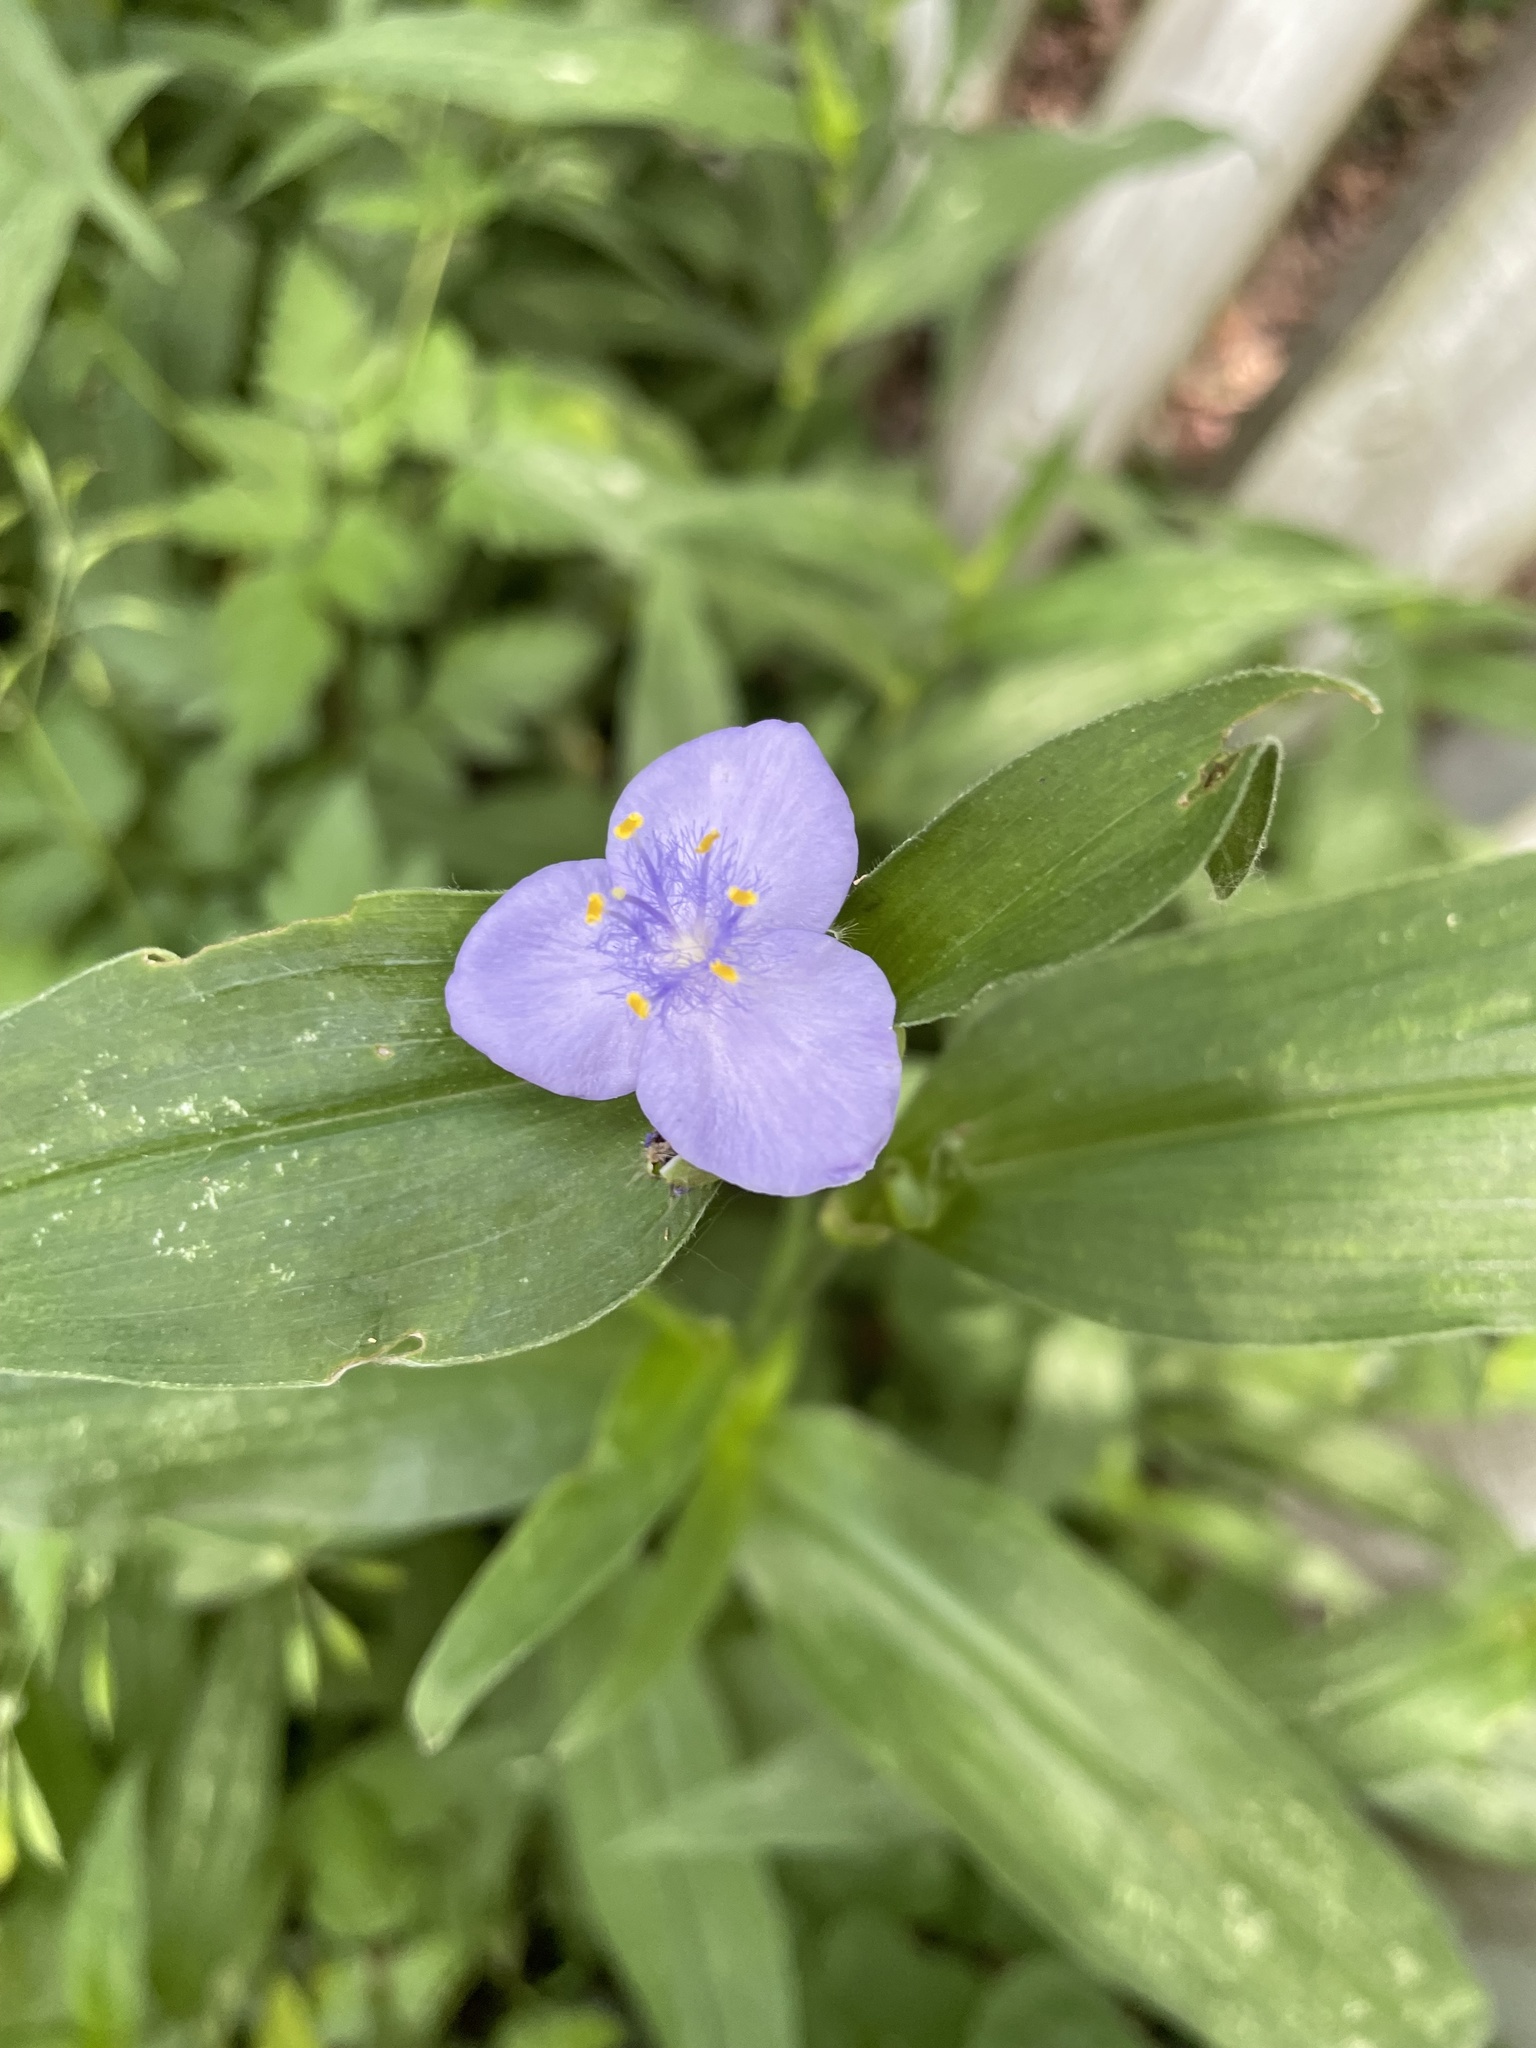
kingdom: Plantae
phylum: Tracheophyta
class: Liliopsida
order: Commelinales
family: Commelinaceae
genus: Tradescantia
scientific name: Tradescantia subaspera
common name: Wide-leaf spiderwort
